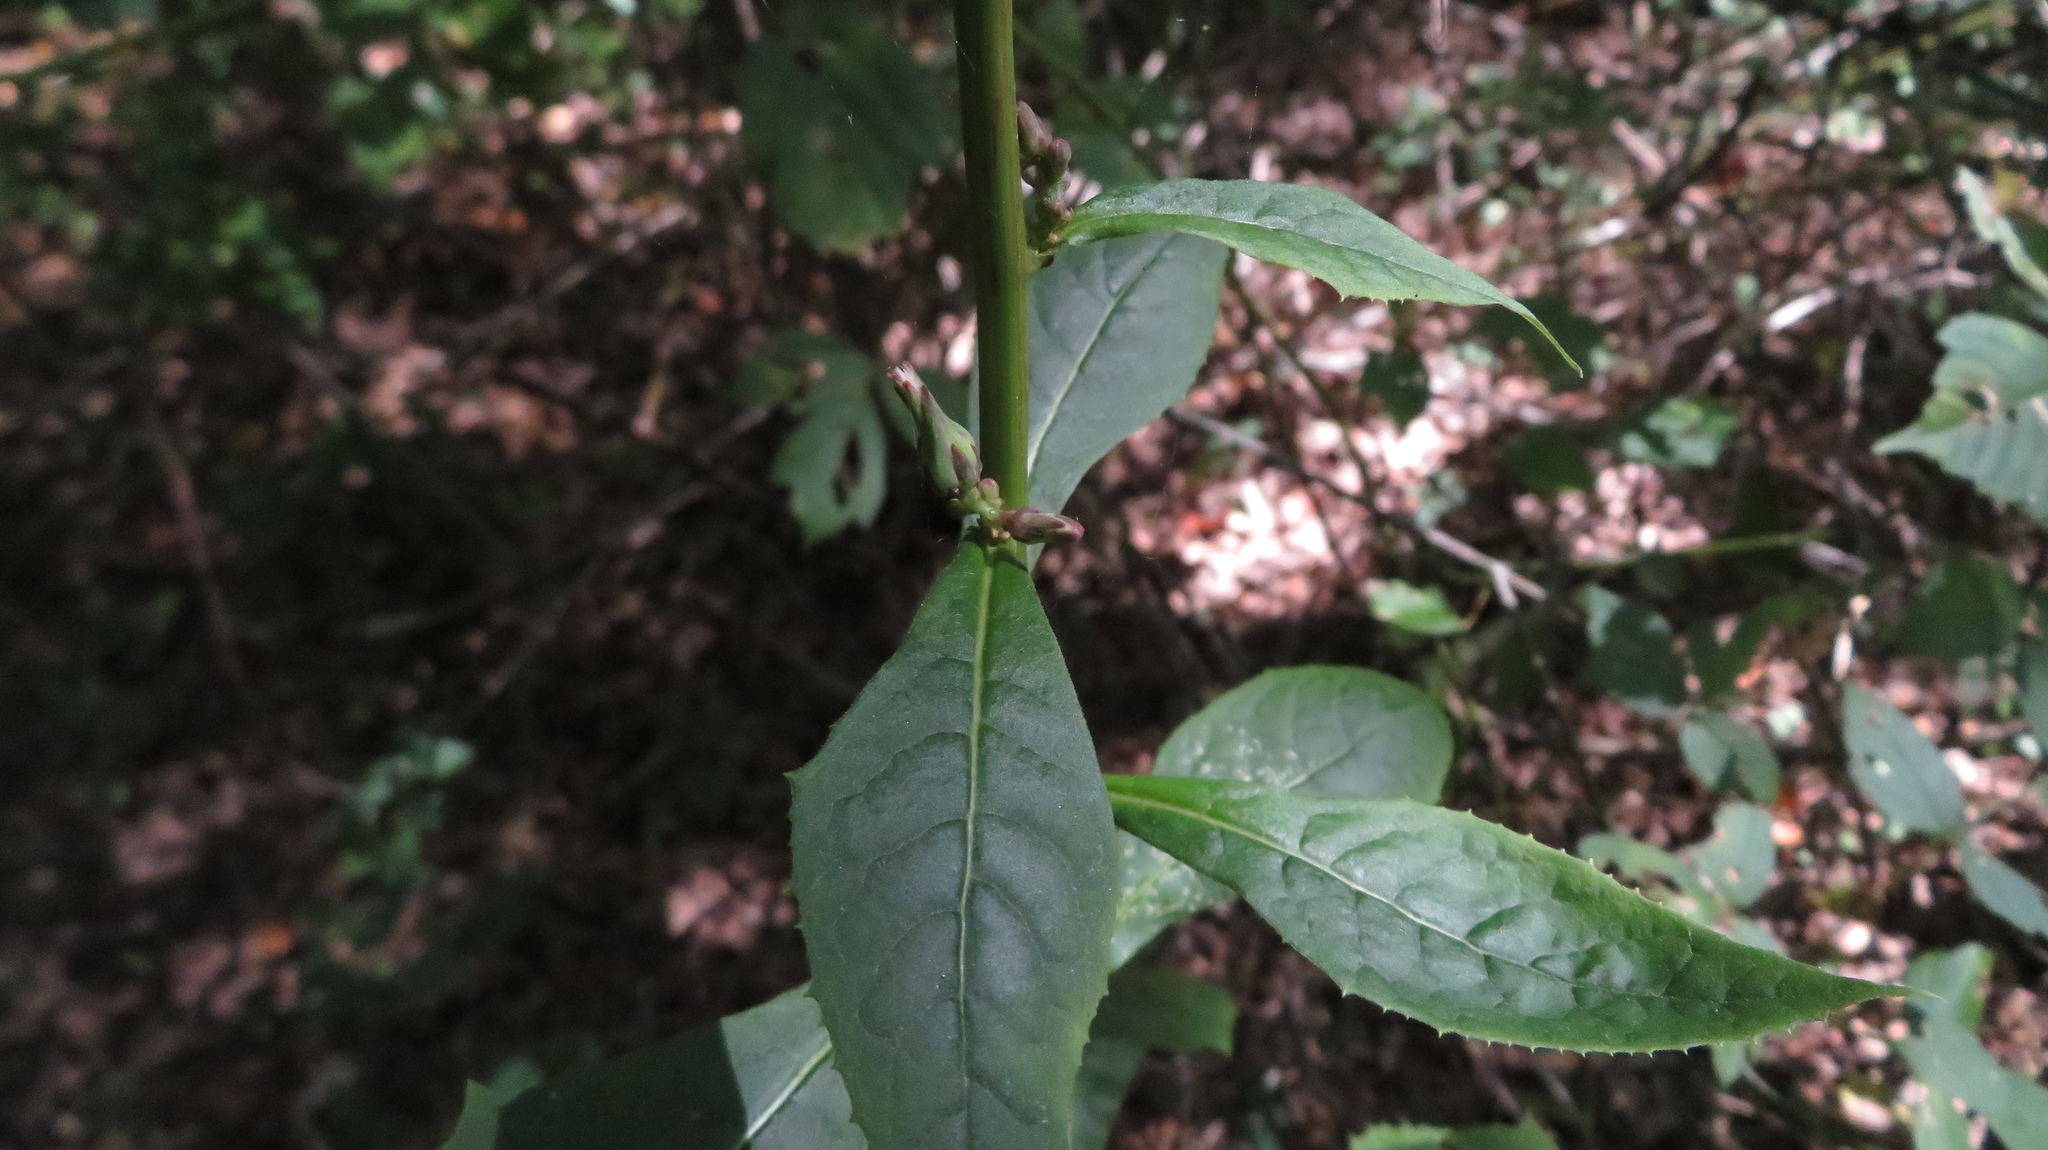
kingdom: Plantae
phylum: Tracheophyta
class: Magnoliopsida
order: Asterales
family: Asteraceae
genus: Lactuca
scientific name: Lactuca floridana
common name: Woodland lettuce
